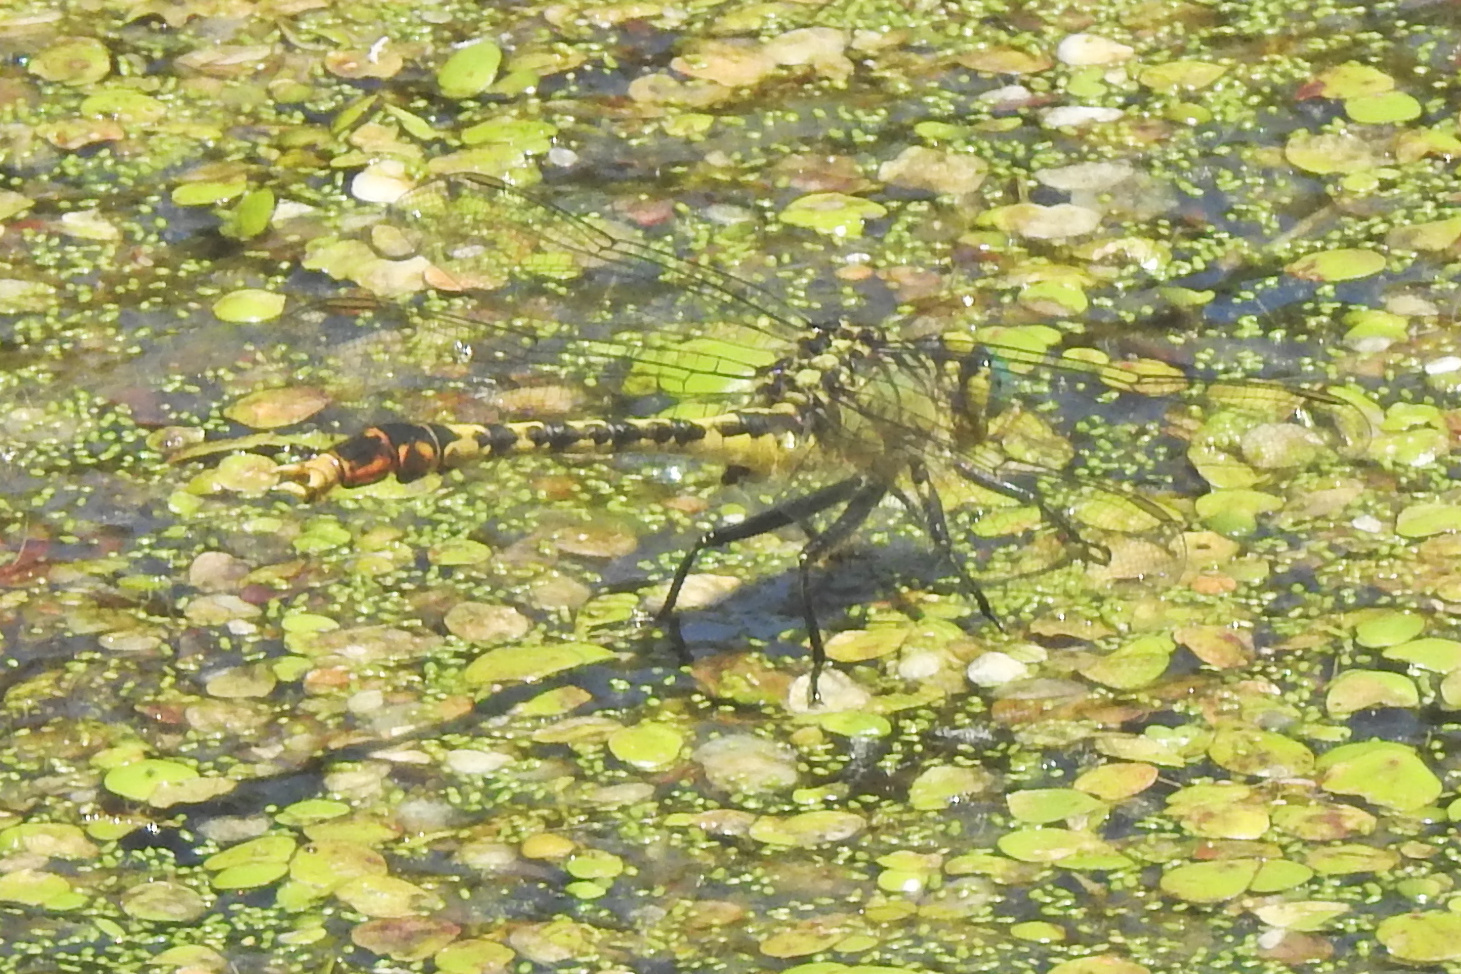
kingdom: Animalia
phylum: Arthropoda
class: Insecta
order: Odonata
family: Gomphidae
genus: Arigomphus
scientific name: Arigomphus villosipes
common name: Unicorn clubtail
